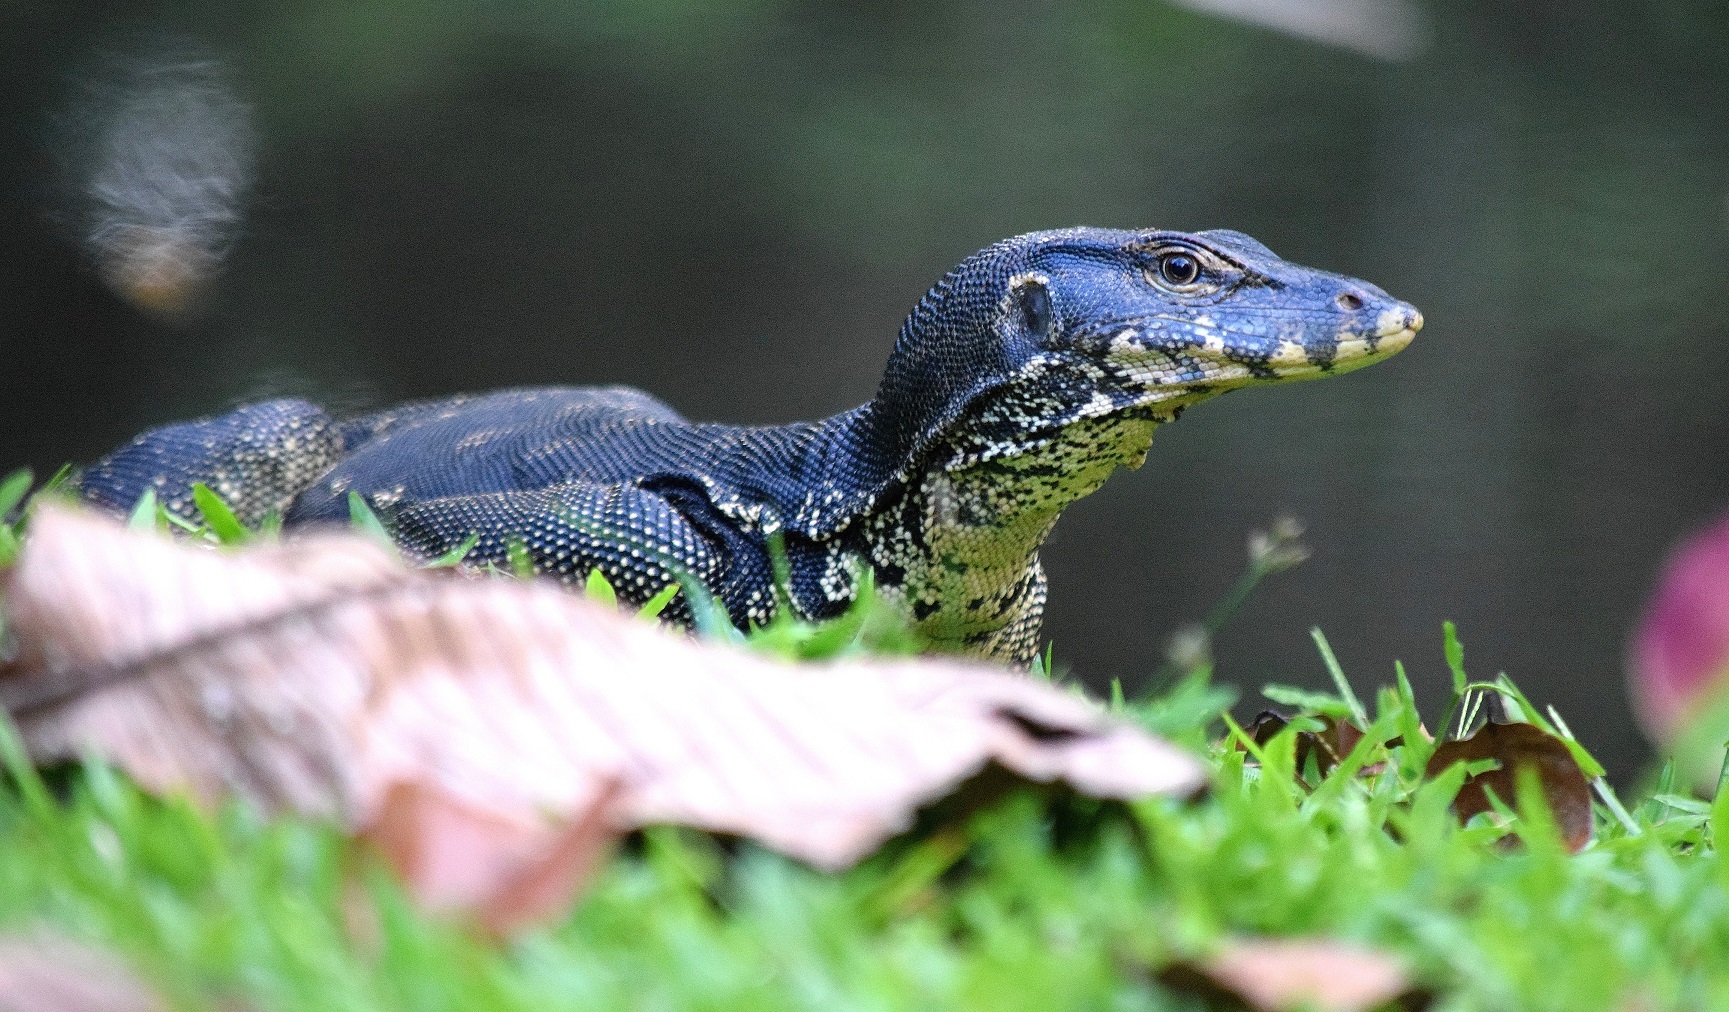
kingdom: Animalia
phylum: Chordata
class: Squamata
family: Varanidae
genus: Varanus
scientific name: Varanus salvator
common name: Common water monitor
